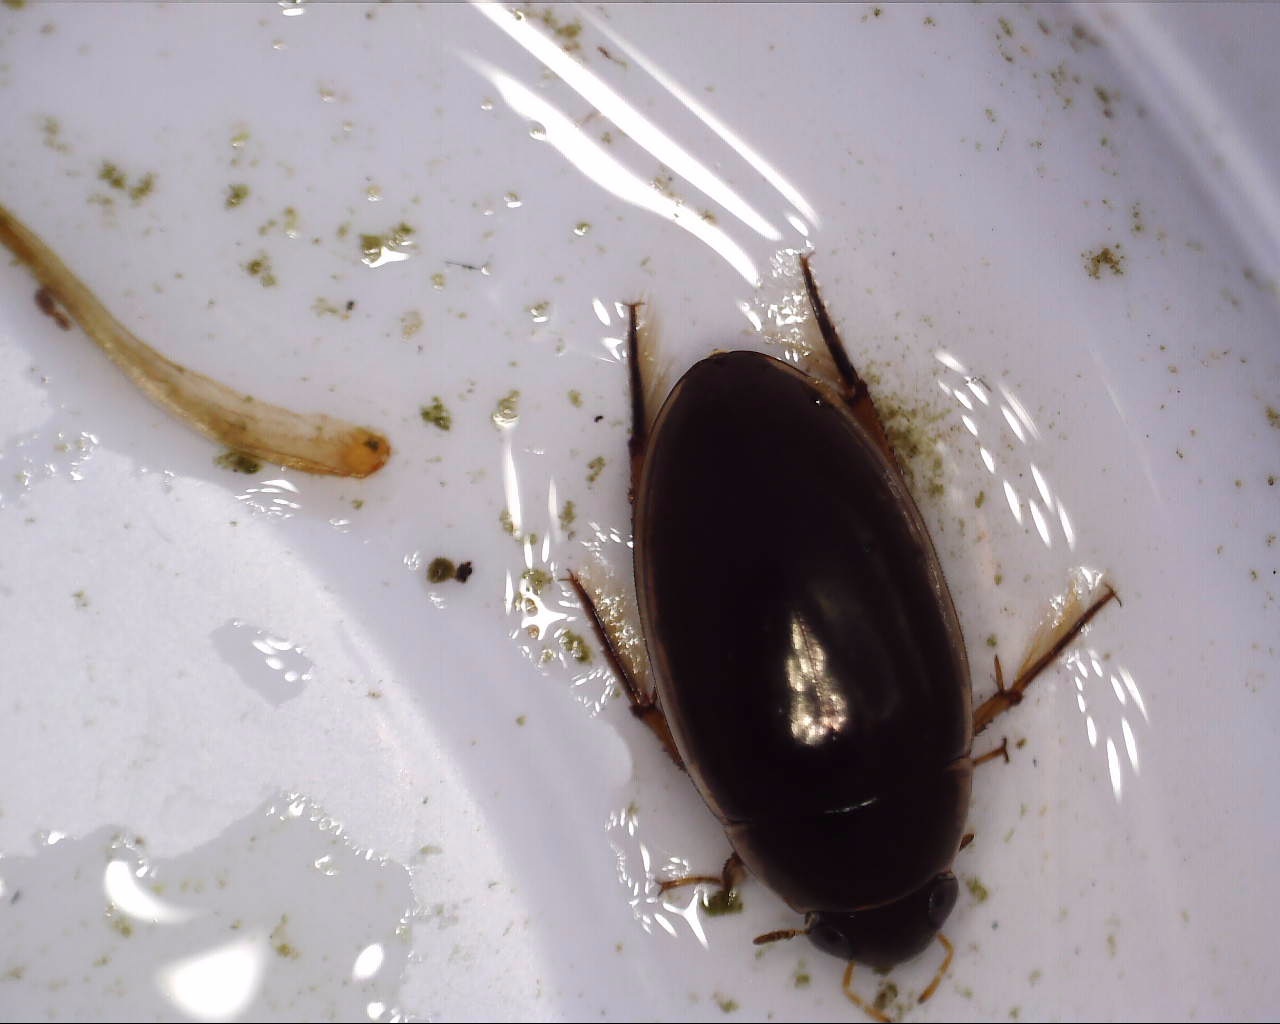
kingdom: Animalia
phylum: Arthropoda
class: Insecta
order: Coleoptera
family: Hydrophilidae
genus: Tropisternus
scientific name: Tropisternus lateralis
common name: Lateral-banded water scavenger beetle
